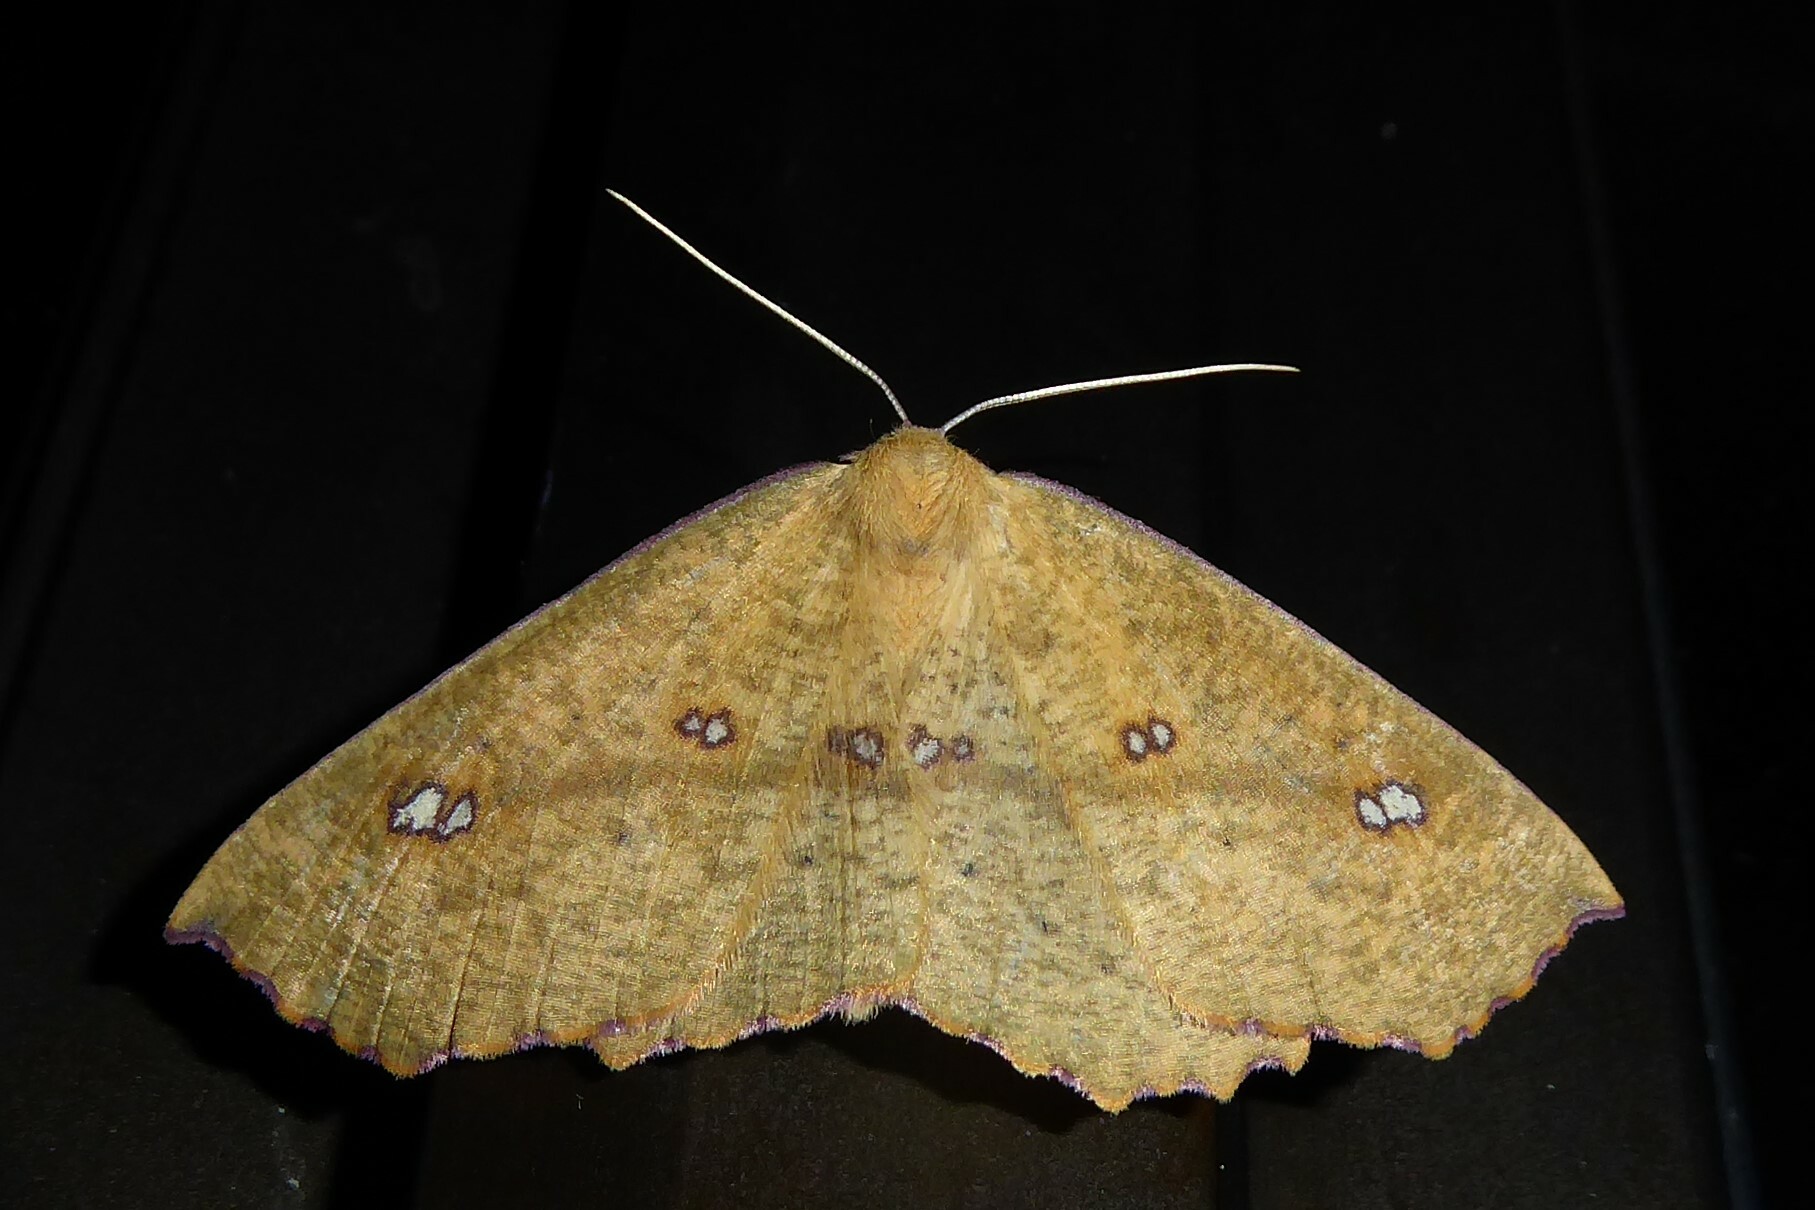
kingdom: Animalia
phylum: Arthropoda
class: Insecta
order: Lepidoptera
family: Geometridae
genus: Xyridacma
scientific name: Xyridacma alectoraria
